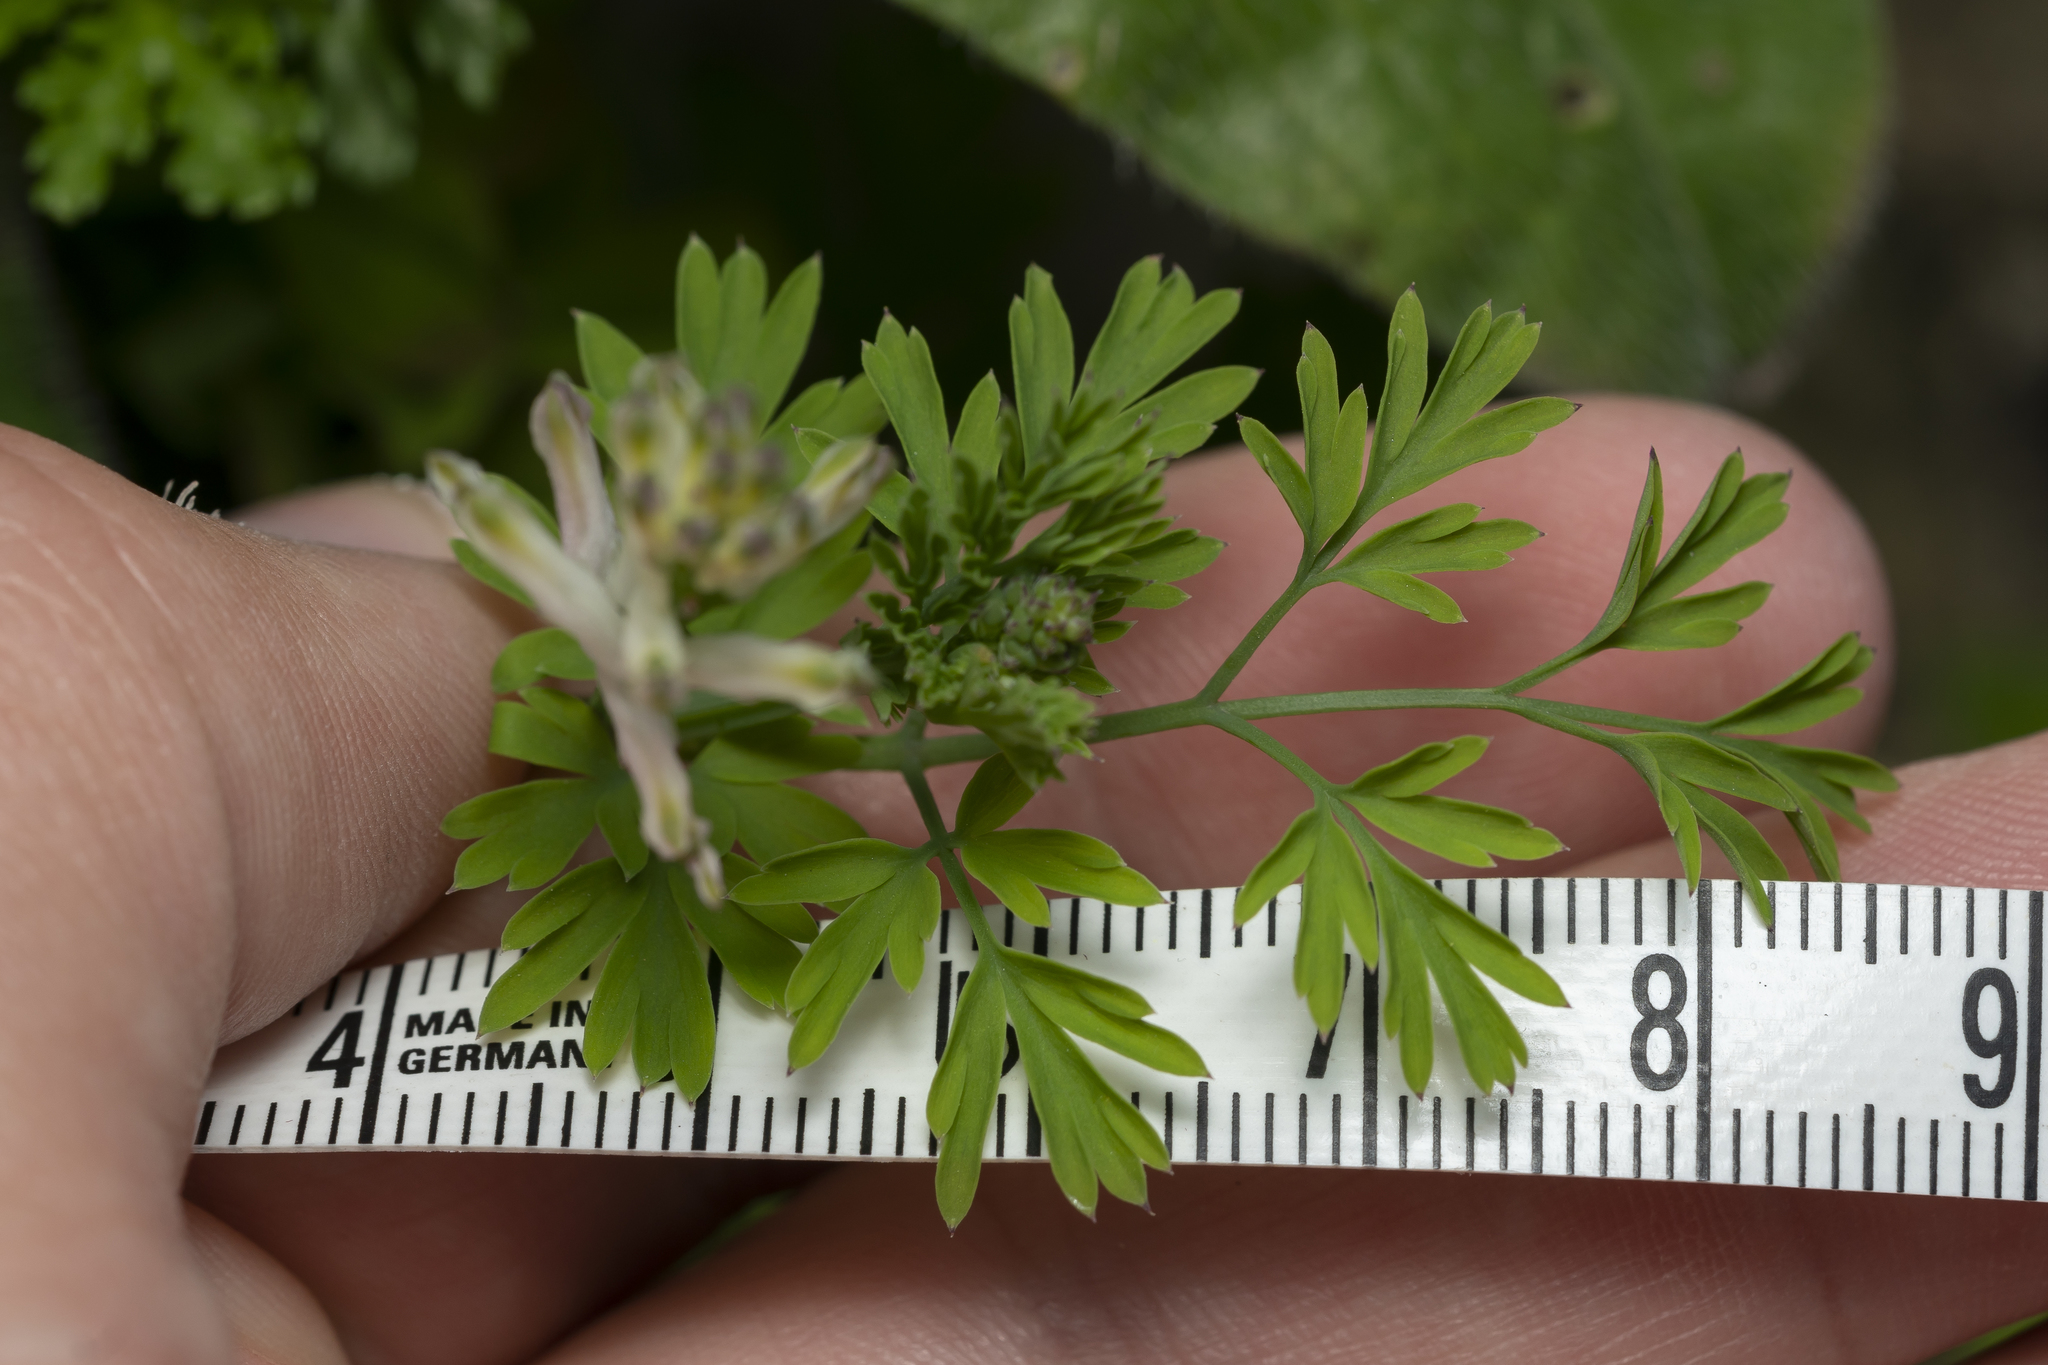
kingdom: Plantae
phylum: Tracheophyta
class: Magnoliopsida
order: Ranunculales
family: Papaveraceae
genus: Fumaria
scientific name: Fumaria judaica
